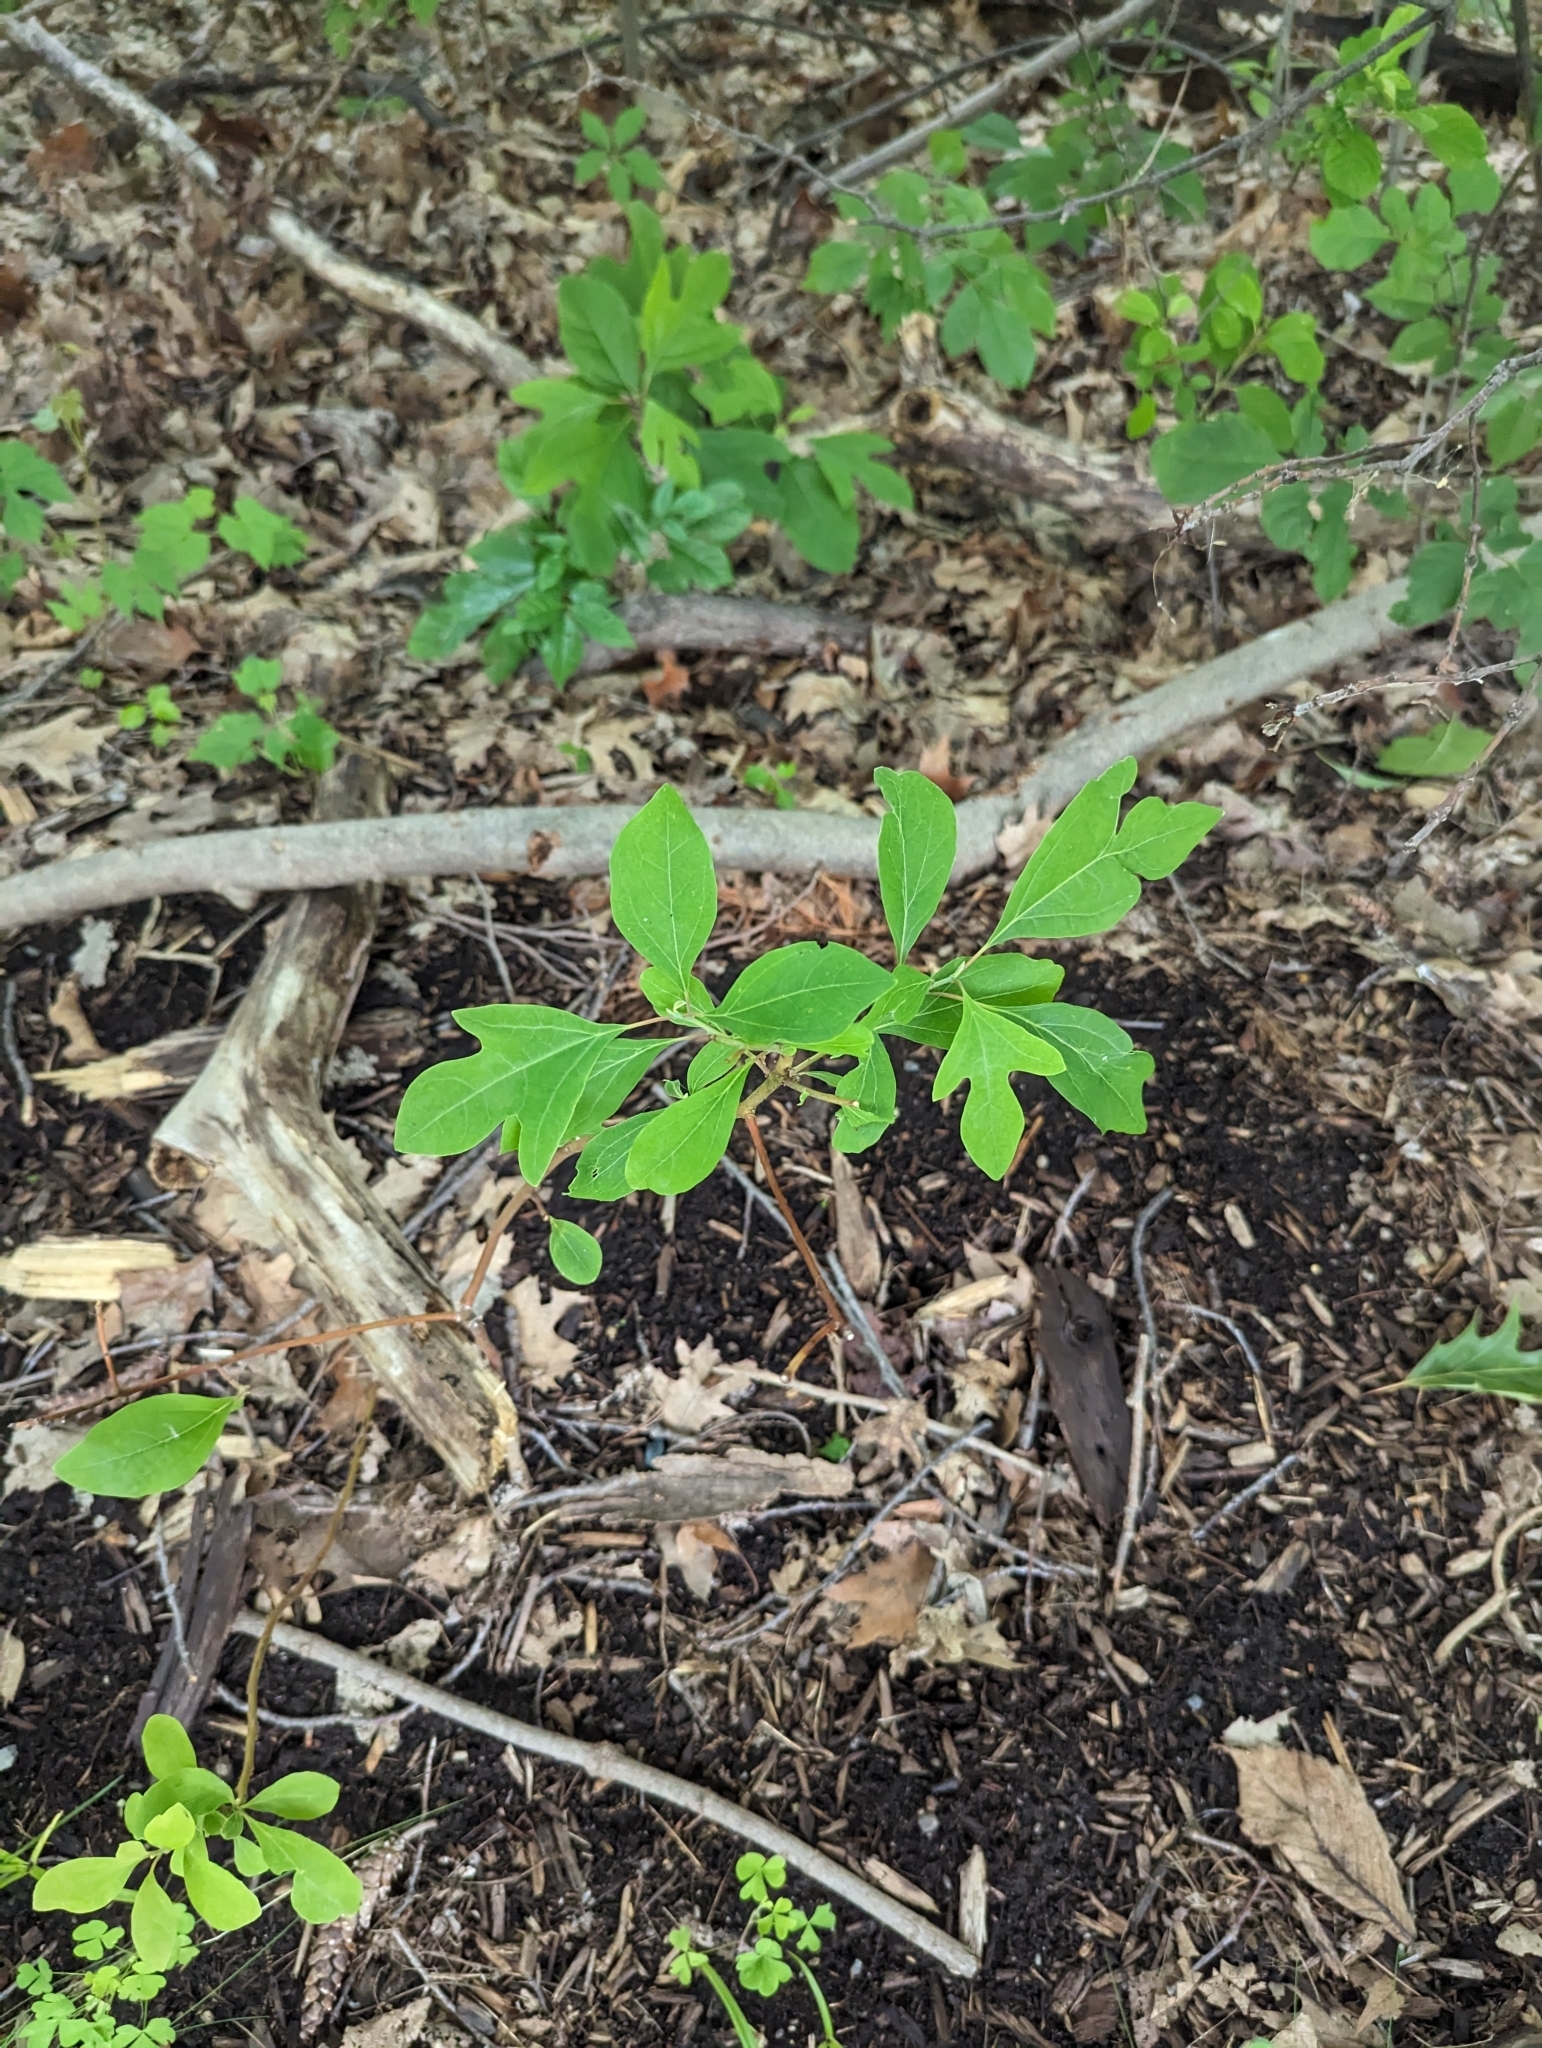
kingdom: Plantae
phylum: Tracheophyta
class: Magnoliopsida
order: Laurales
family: Lauraceae
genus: Sassafras
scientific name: Sassafras albidum
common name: Sassafras
